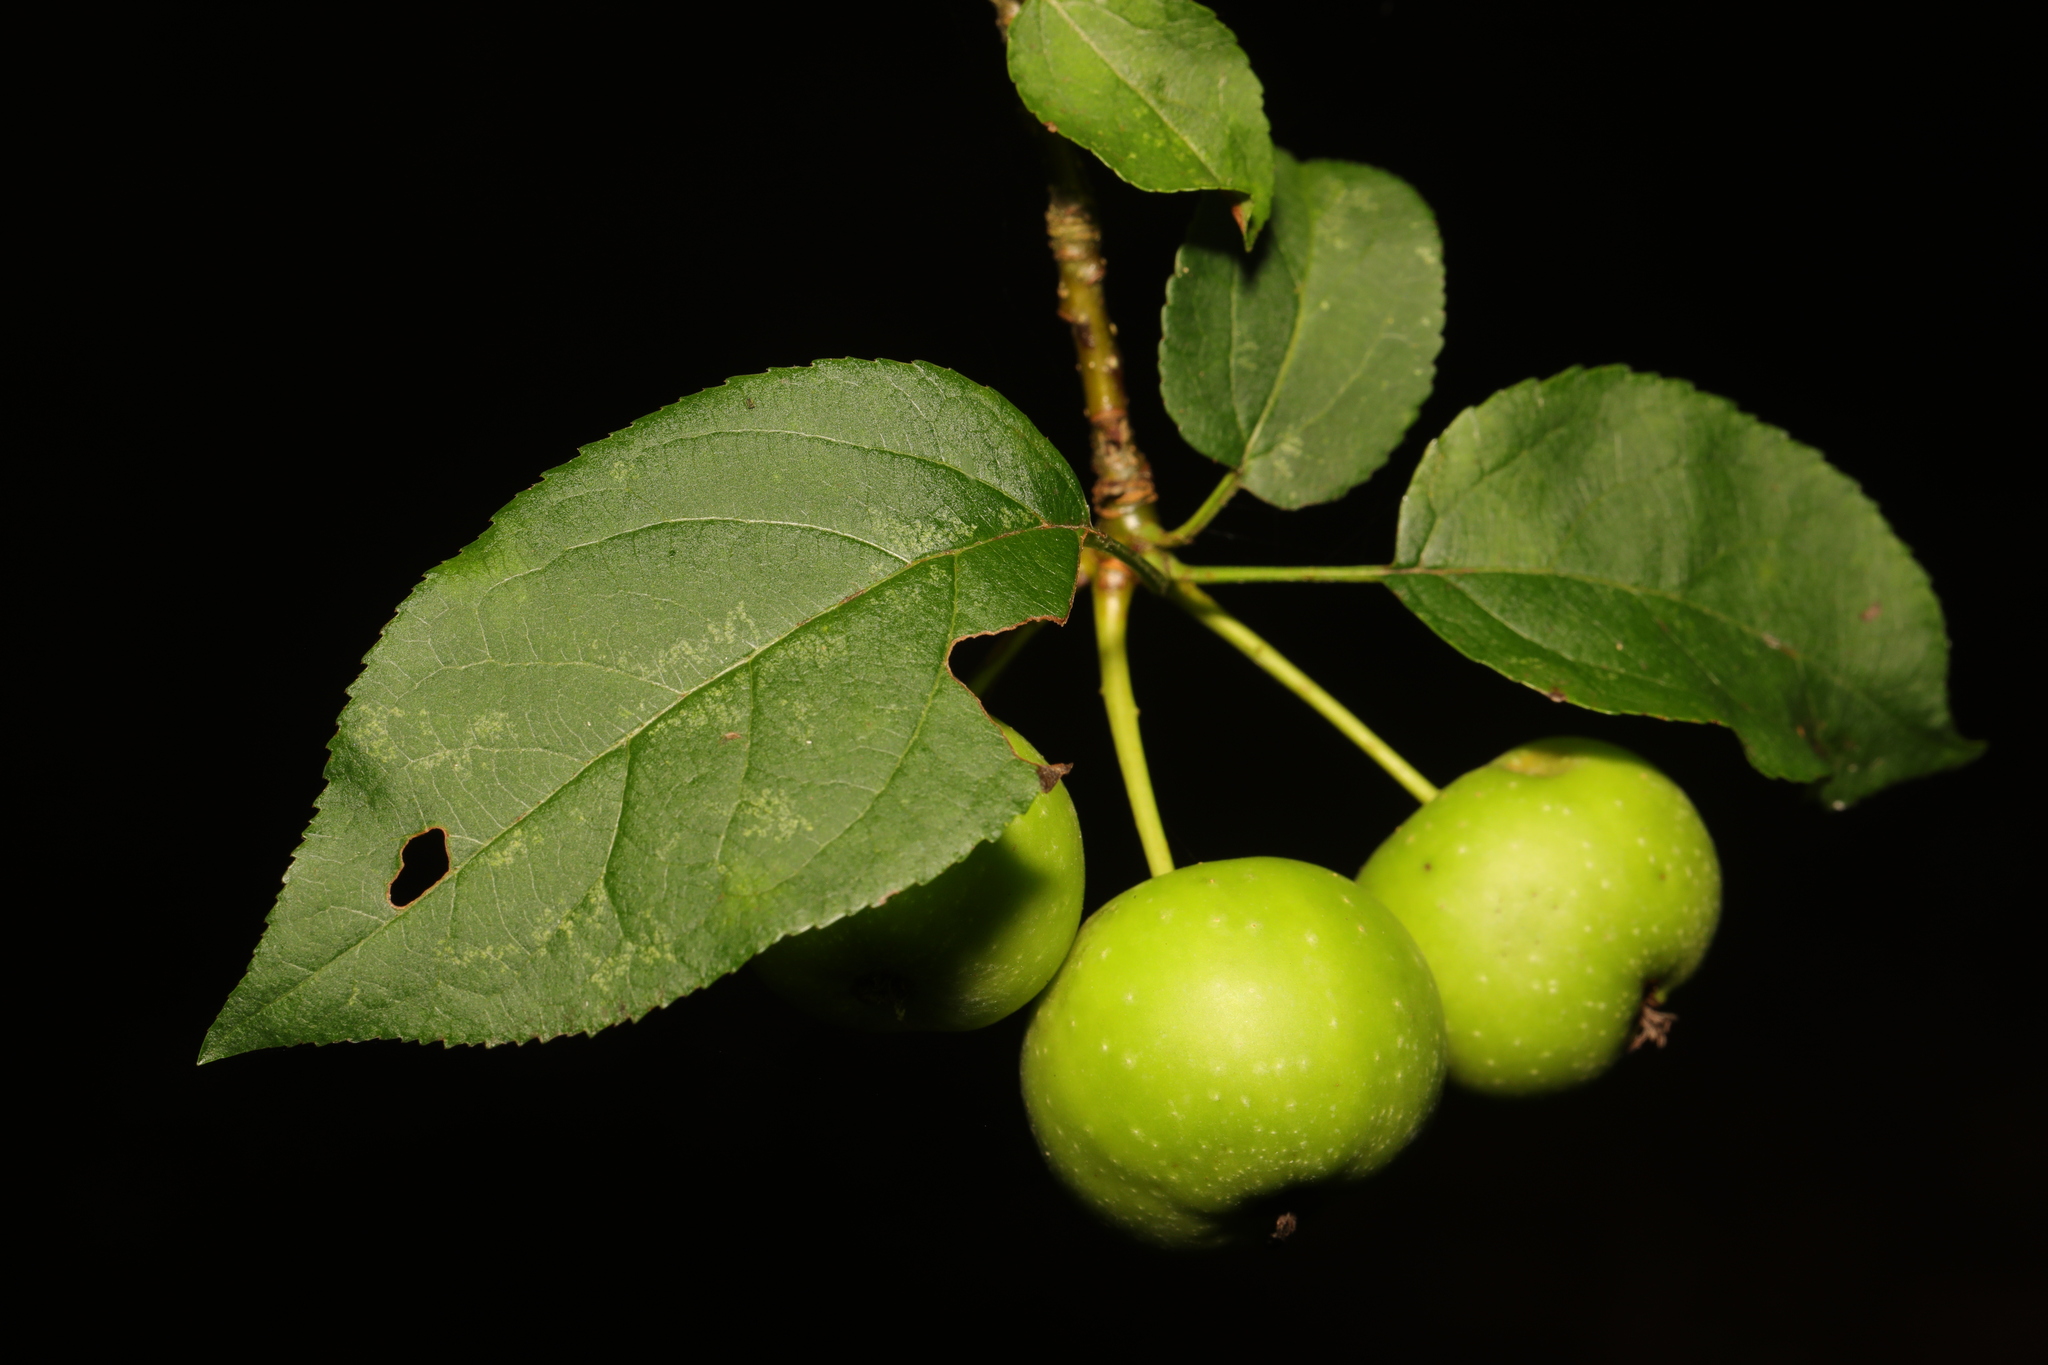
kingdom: Plantae
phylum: Tracheophyta
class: Magnoliopsida
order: Rosales
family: Rosaceae
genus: Malus
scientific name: Malus sylvestris
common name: Crab apple
